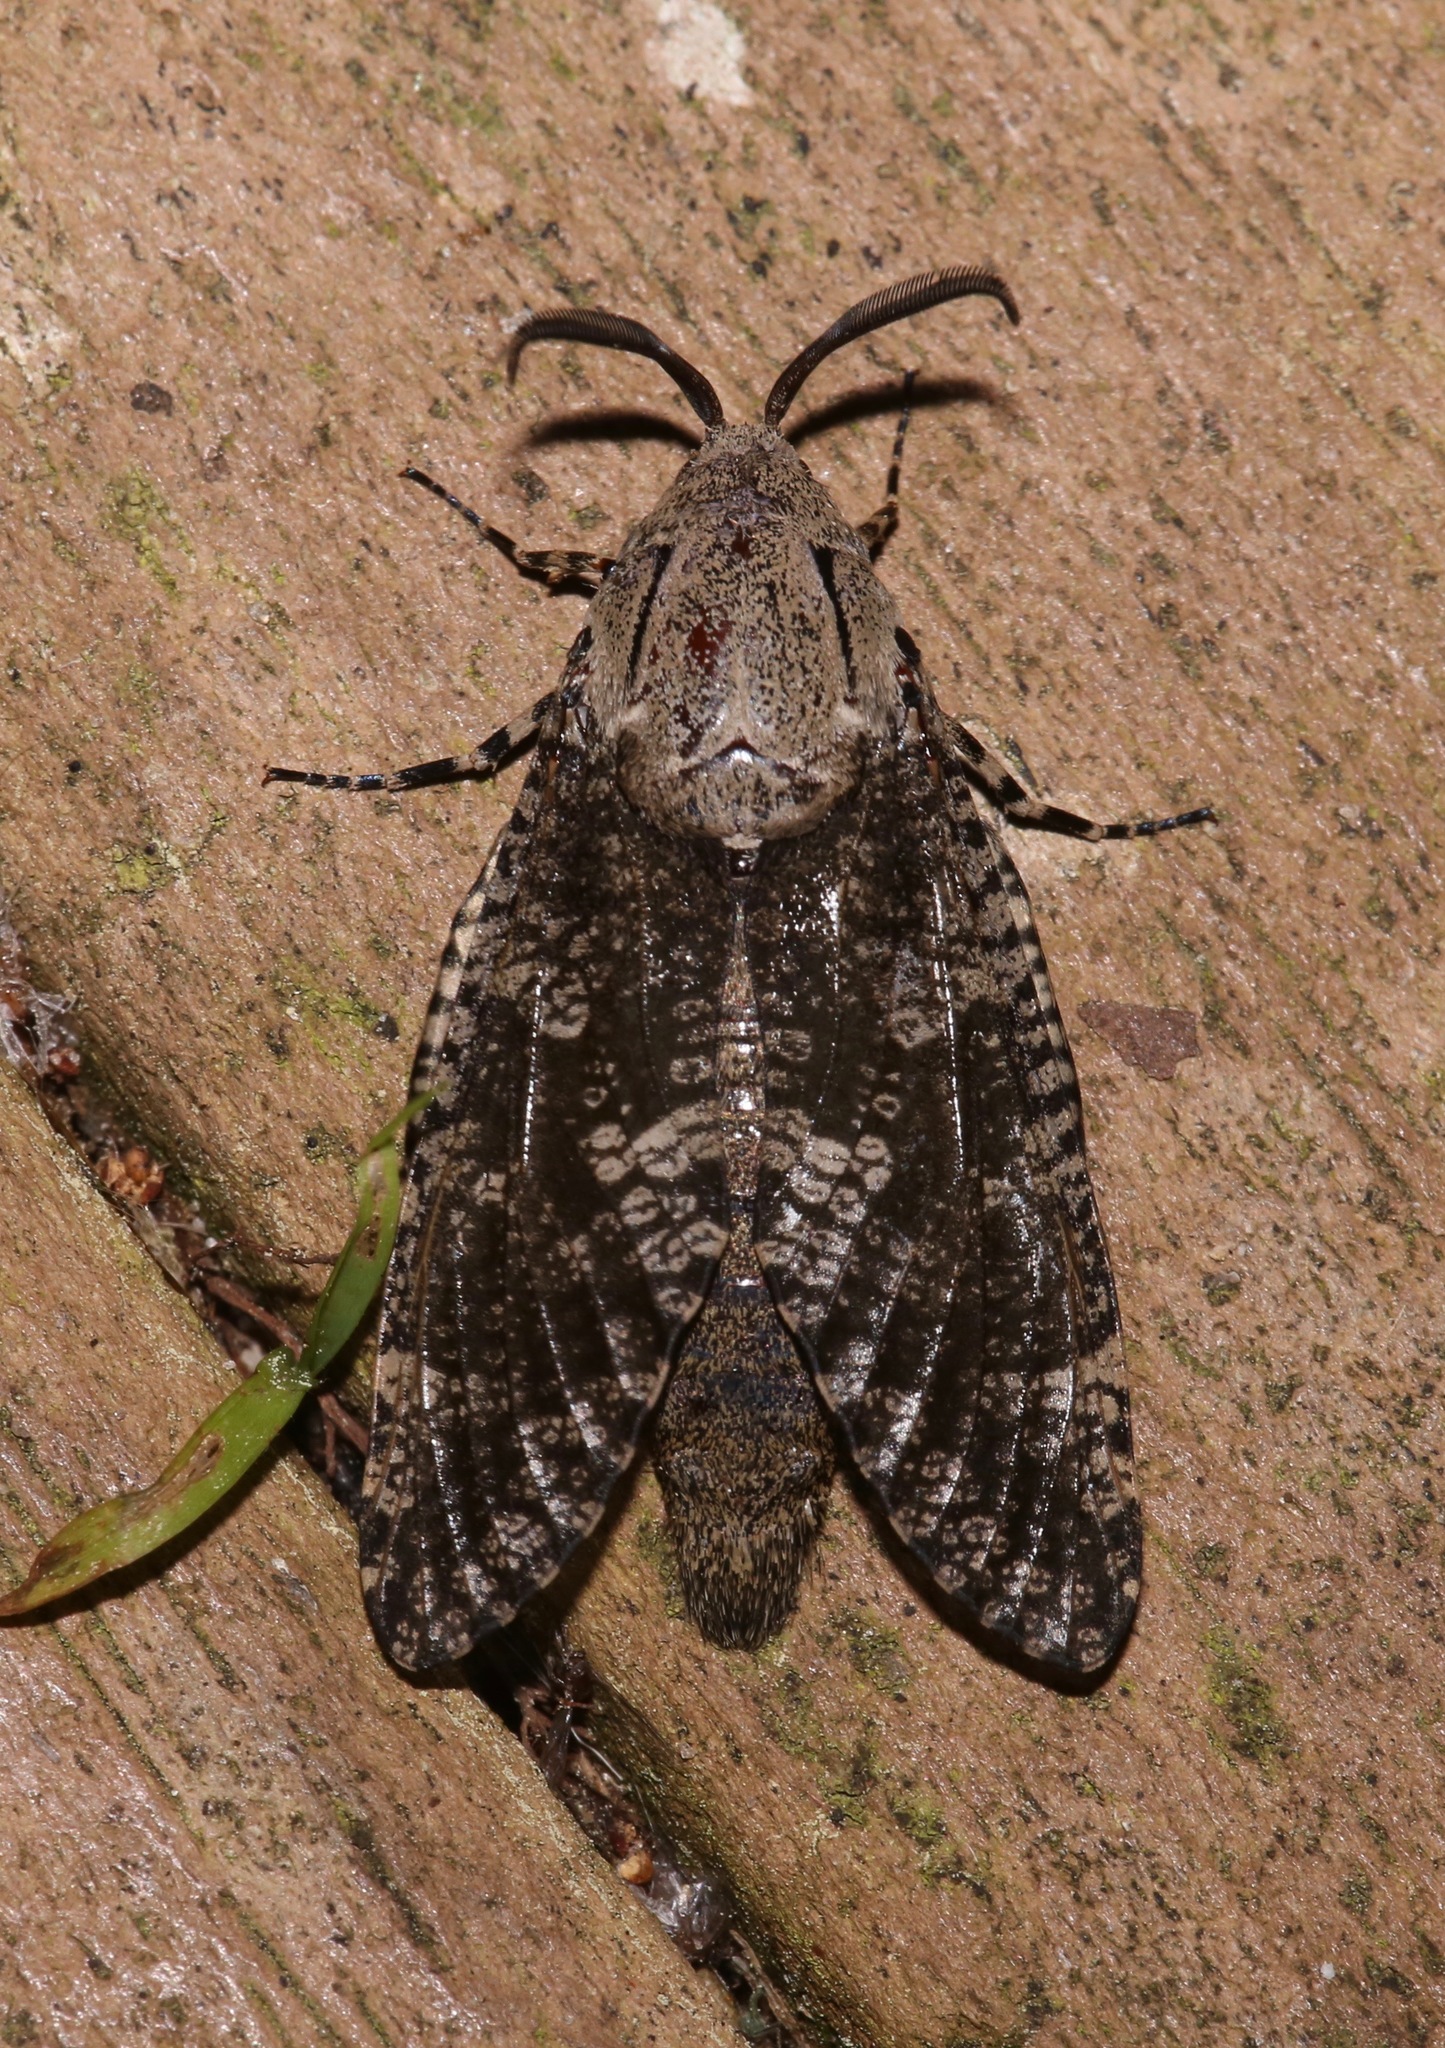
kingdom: Animalia
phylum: Arthropoda
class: Insecta
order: Lepidoptera
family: Cossidae
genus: Prionoxystus
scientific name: Prionoxystus robiniae
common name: Carpenterworm
